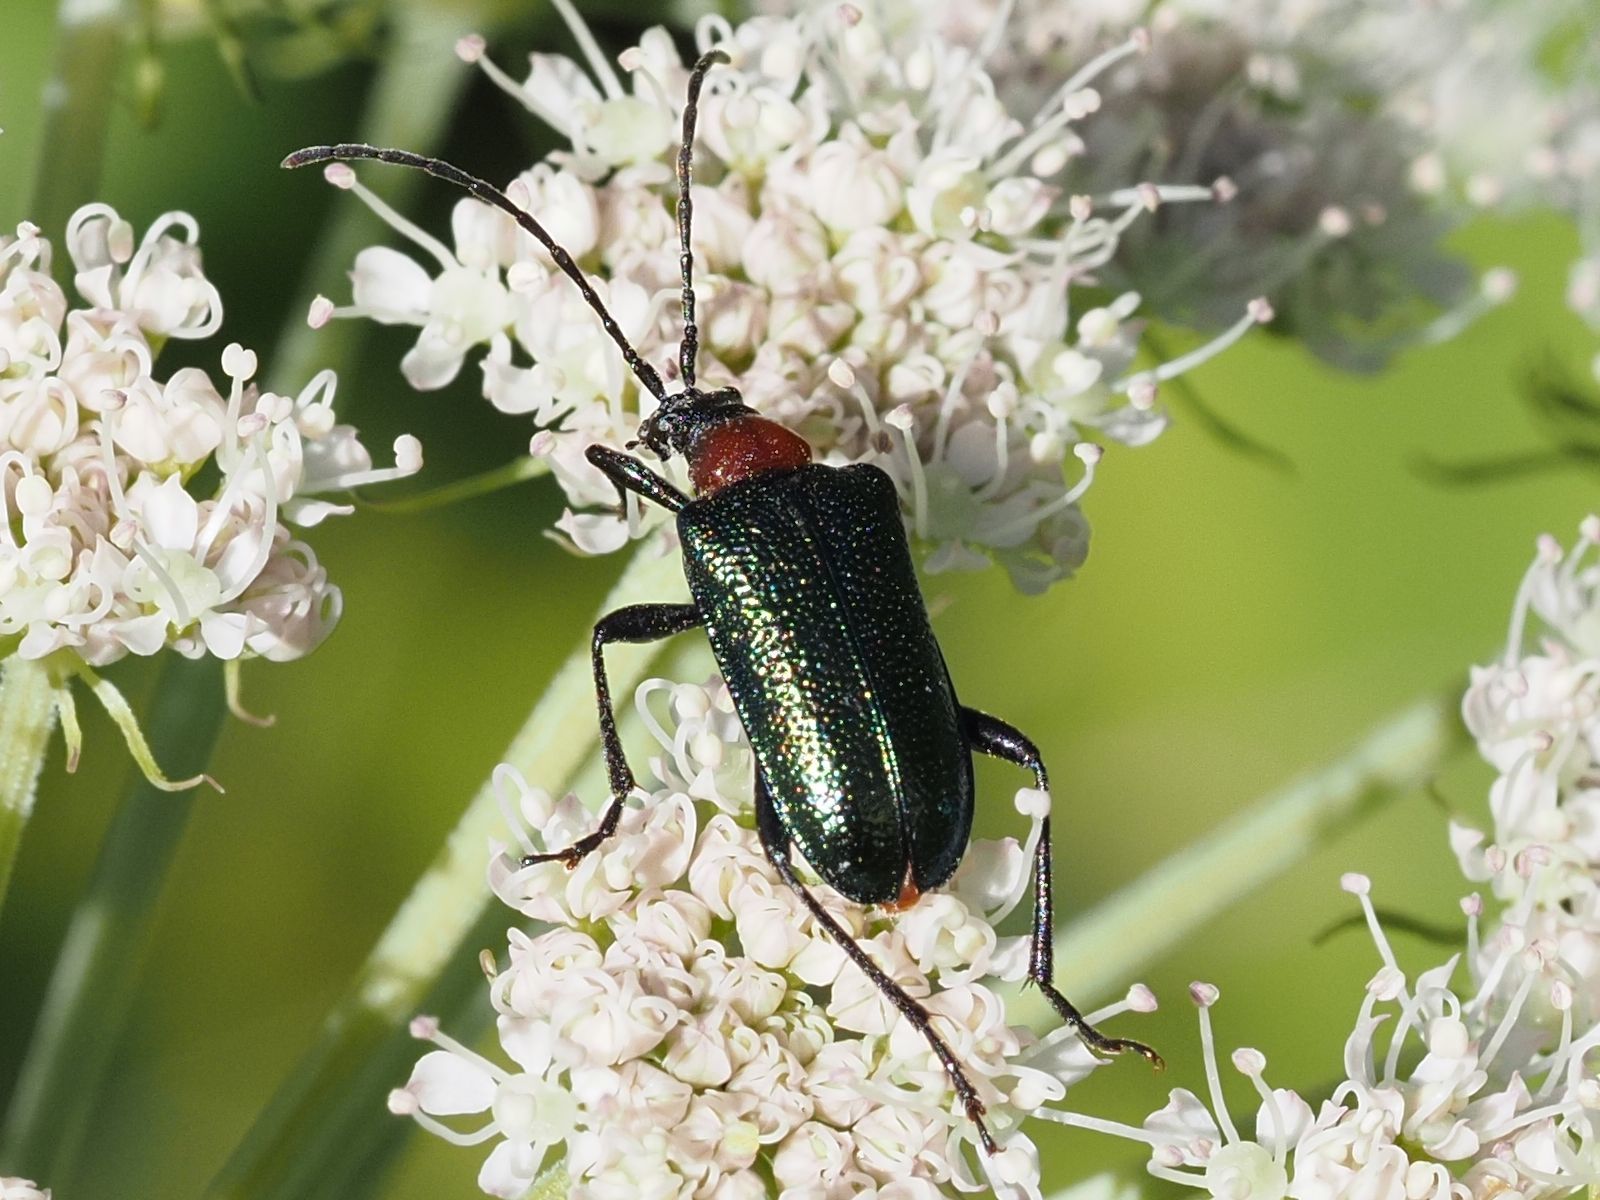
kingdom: Animalia
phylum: Arthropoda
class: Insecta
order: Coleoptera
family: Cerambycidae
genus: Gaurotes
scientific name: Gaurotes virginea
